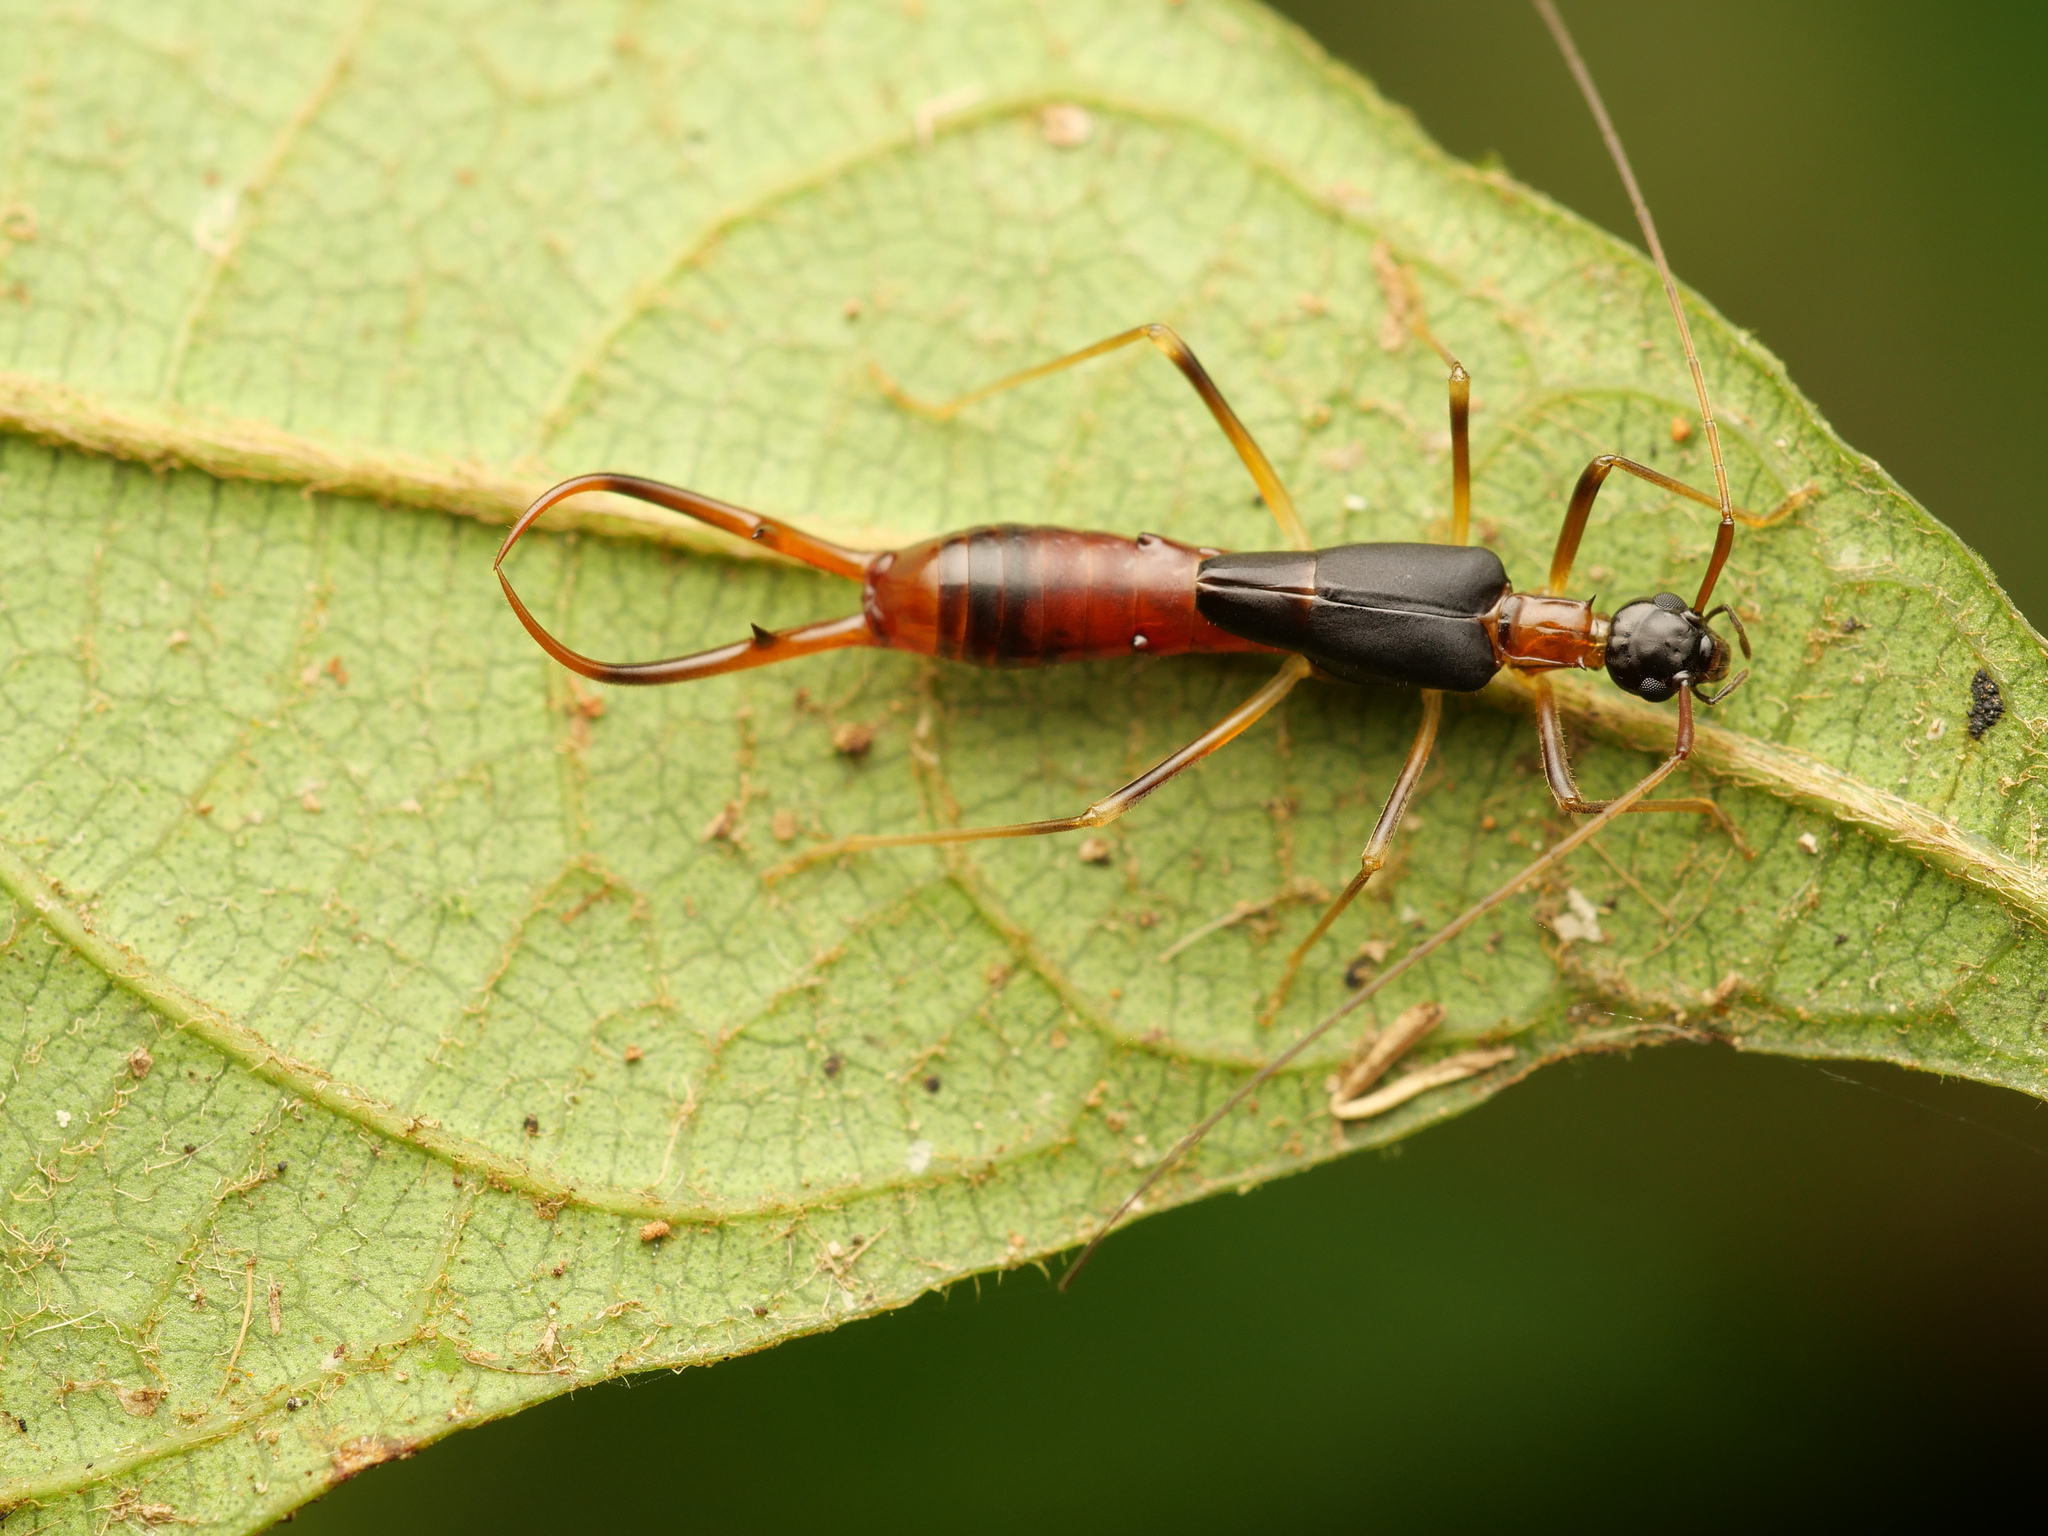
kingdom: Animalia
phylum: Arthropoda
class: Insecta
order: Dermaptera
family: Forficulidae
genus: Acanthocordax
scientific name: Acanthocordax dorsalis
